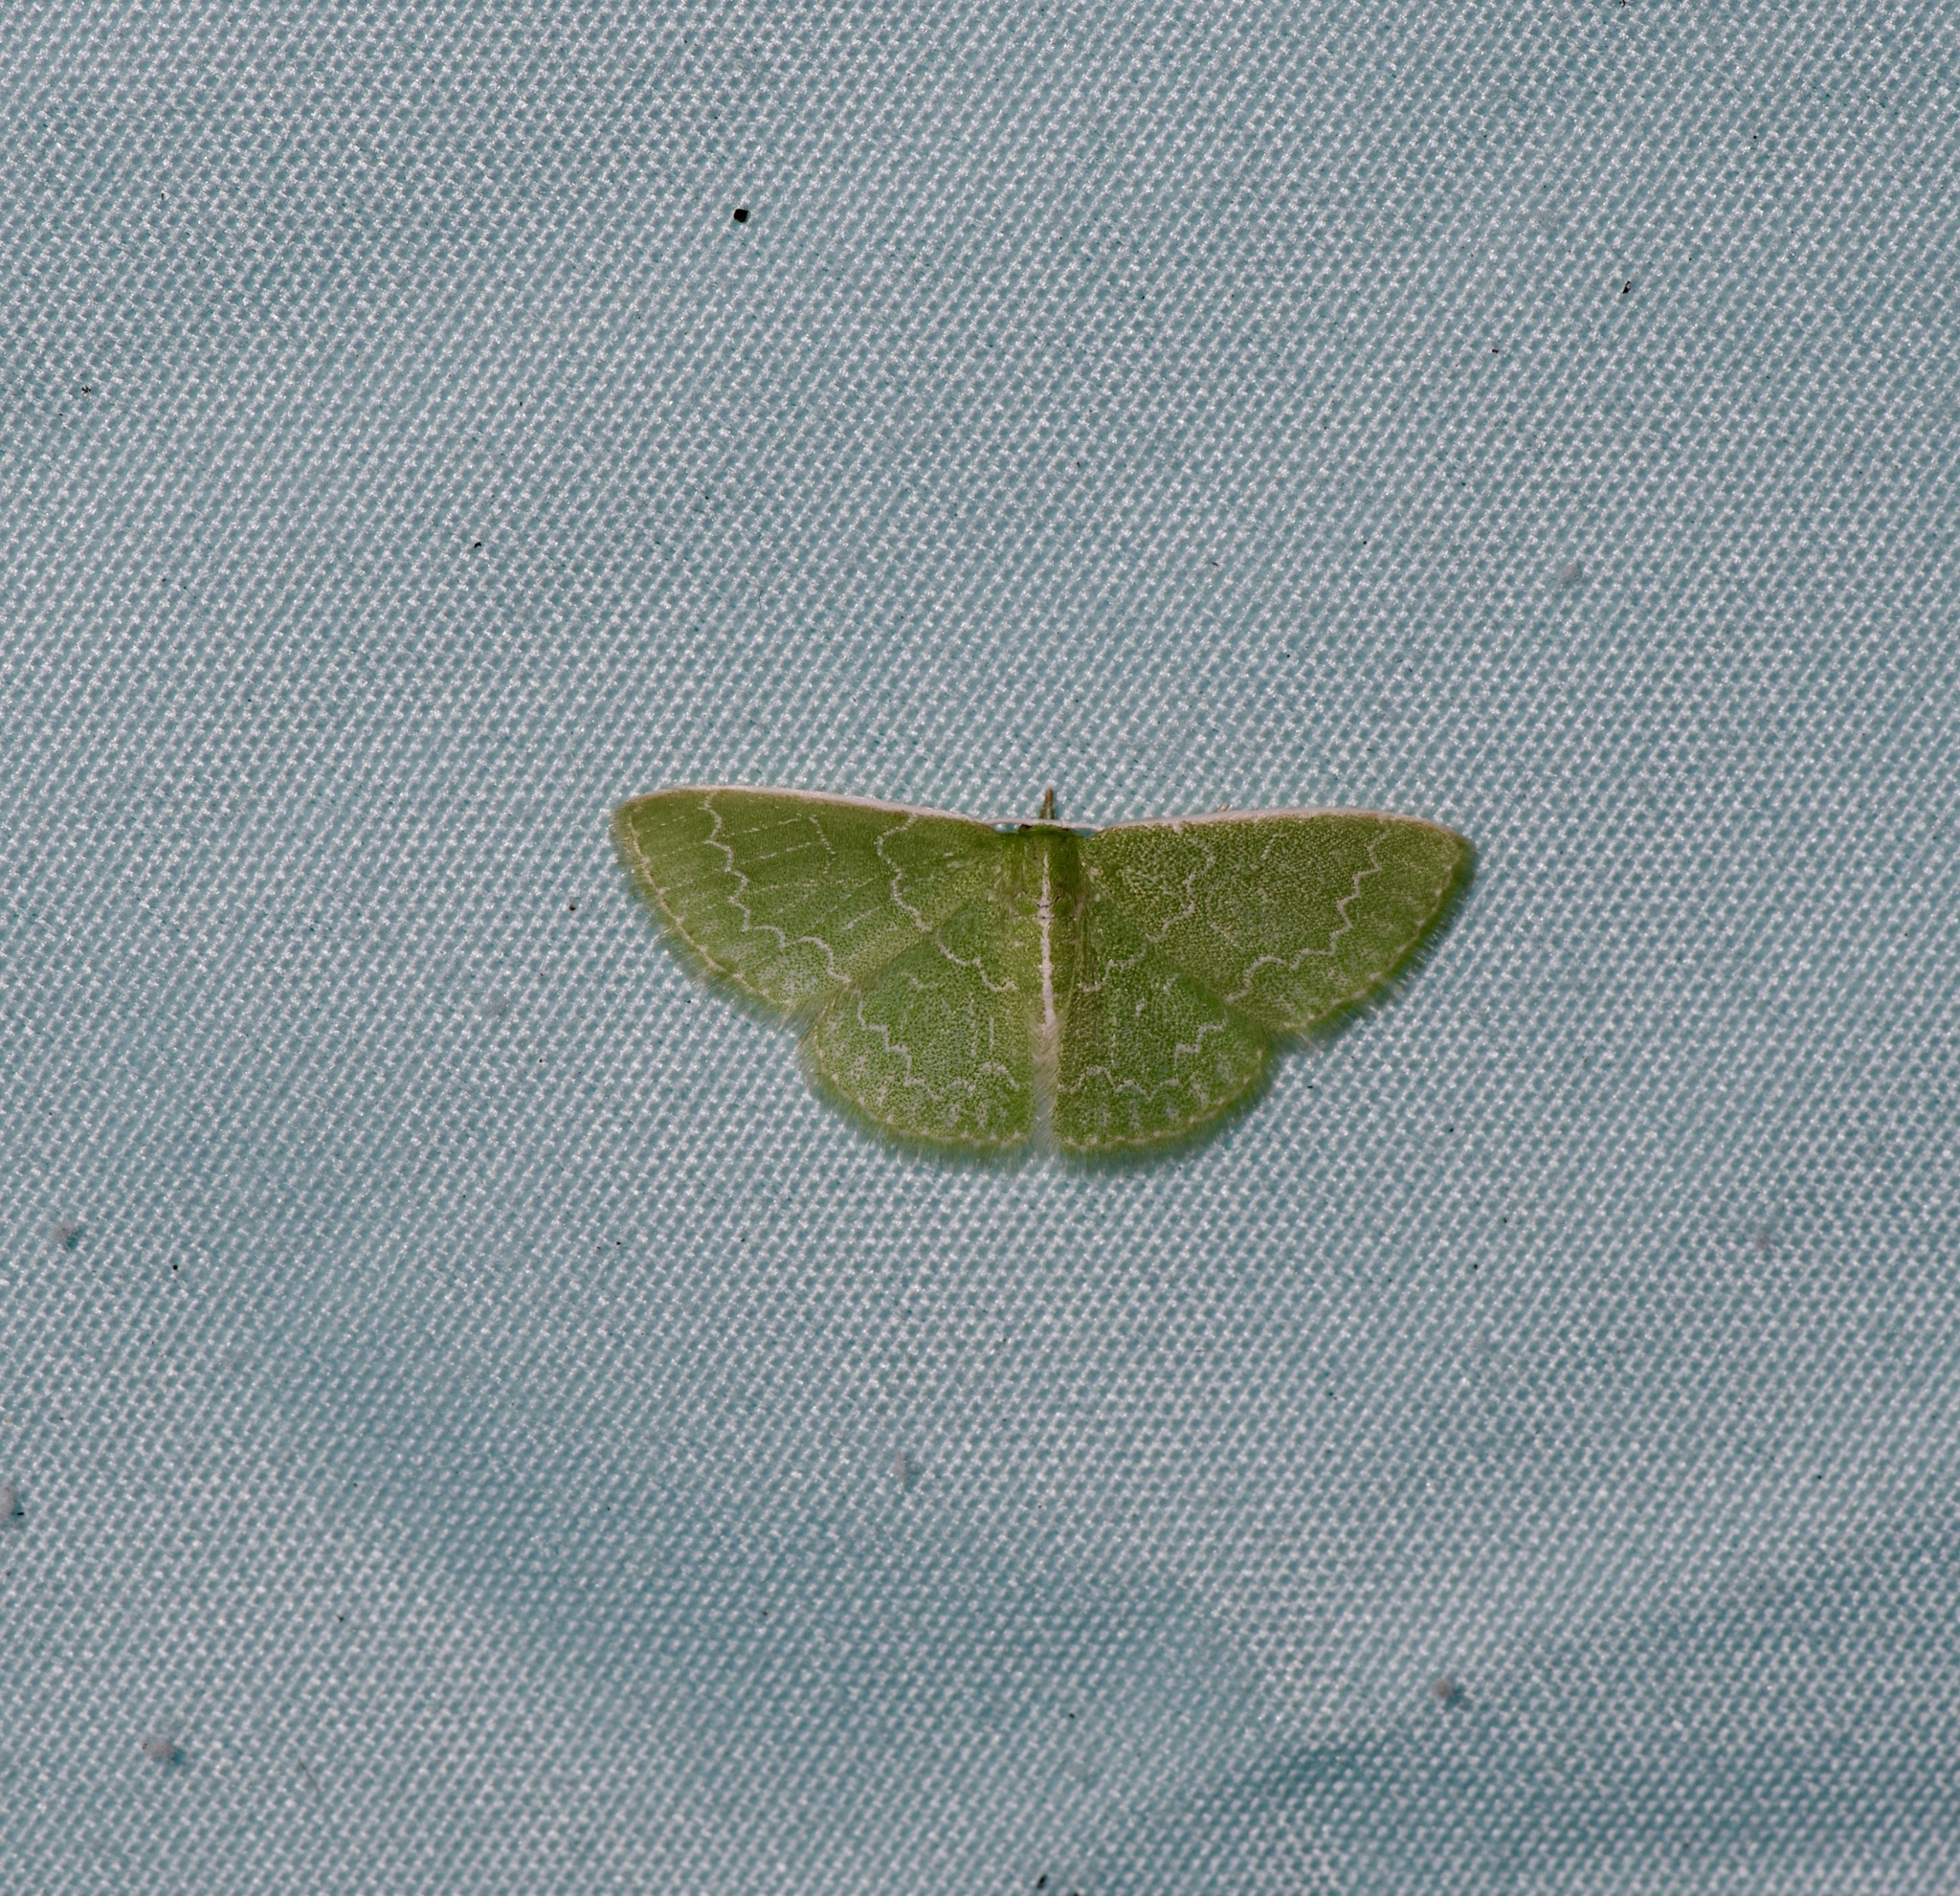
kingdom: Animalia
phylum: Arthropoda
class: Insecta
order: Lepidoptera
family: Geometridae
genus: Synchlora
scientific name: Synchlora frondaria
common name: Southern emerald
